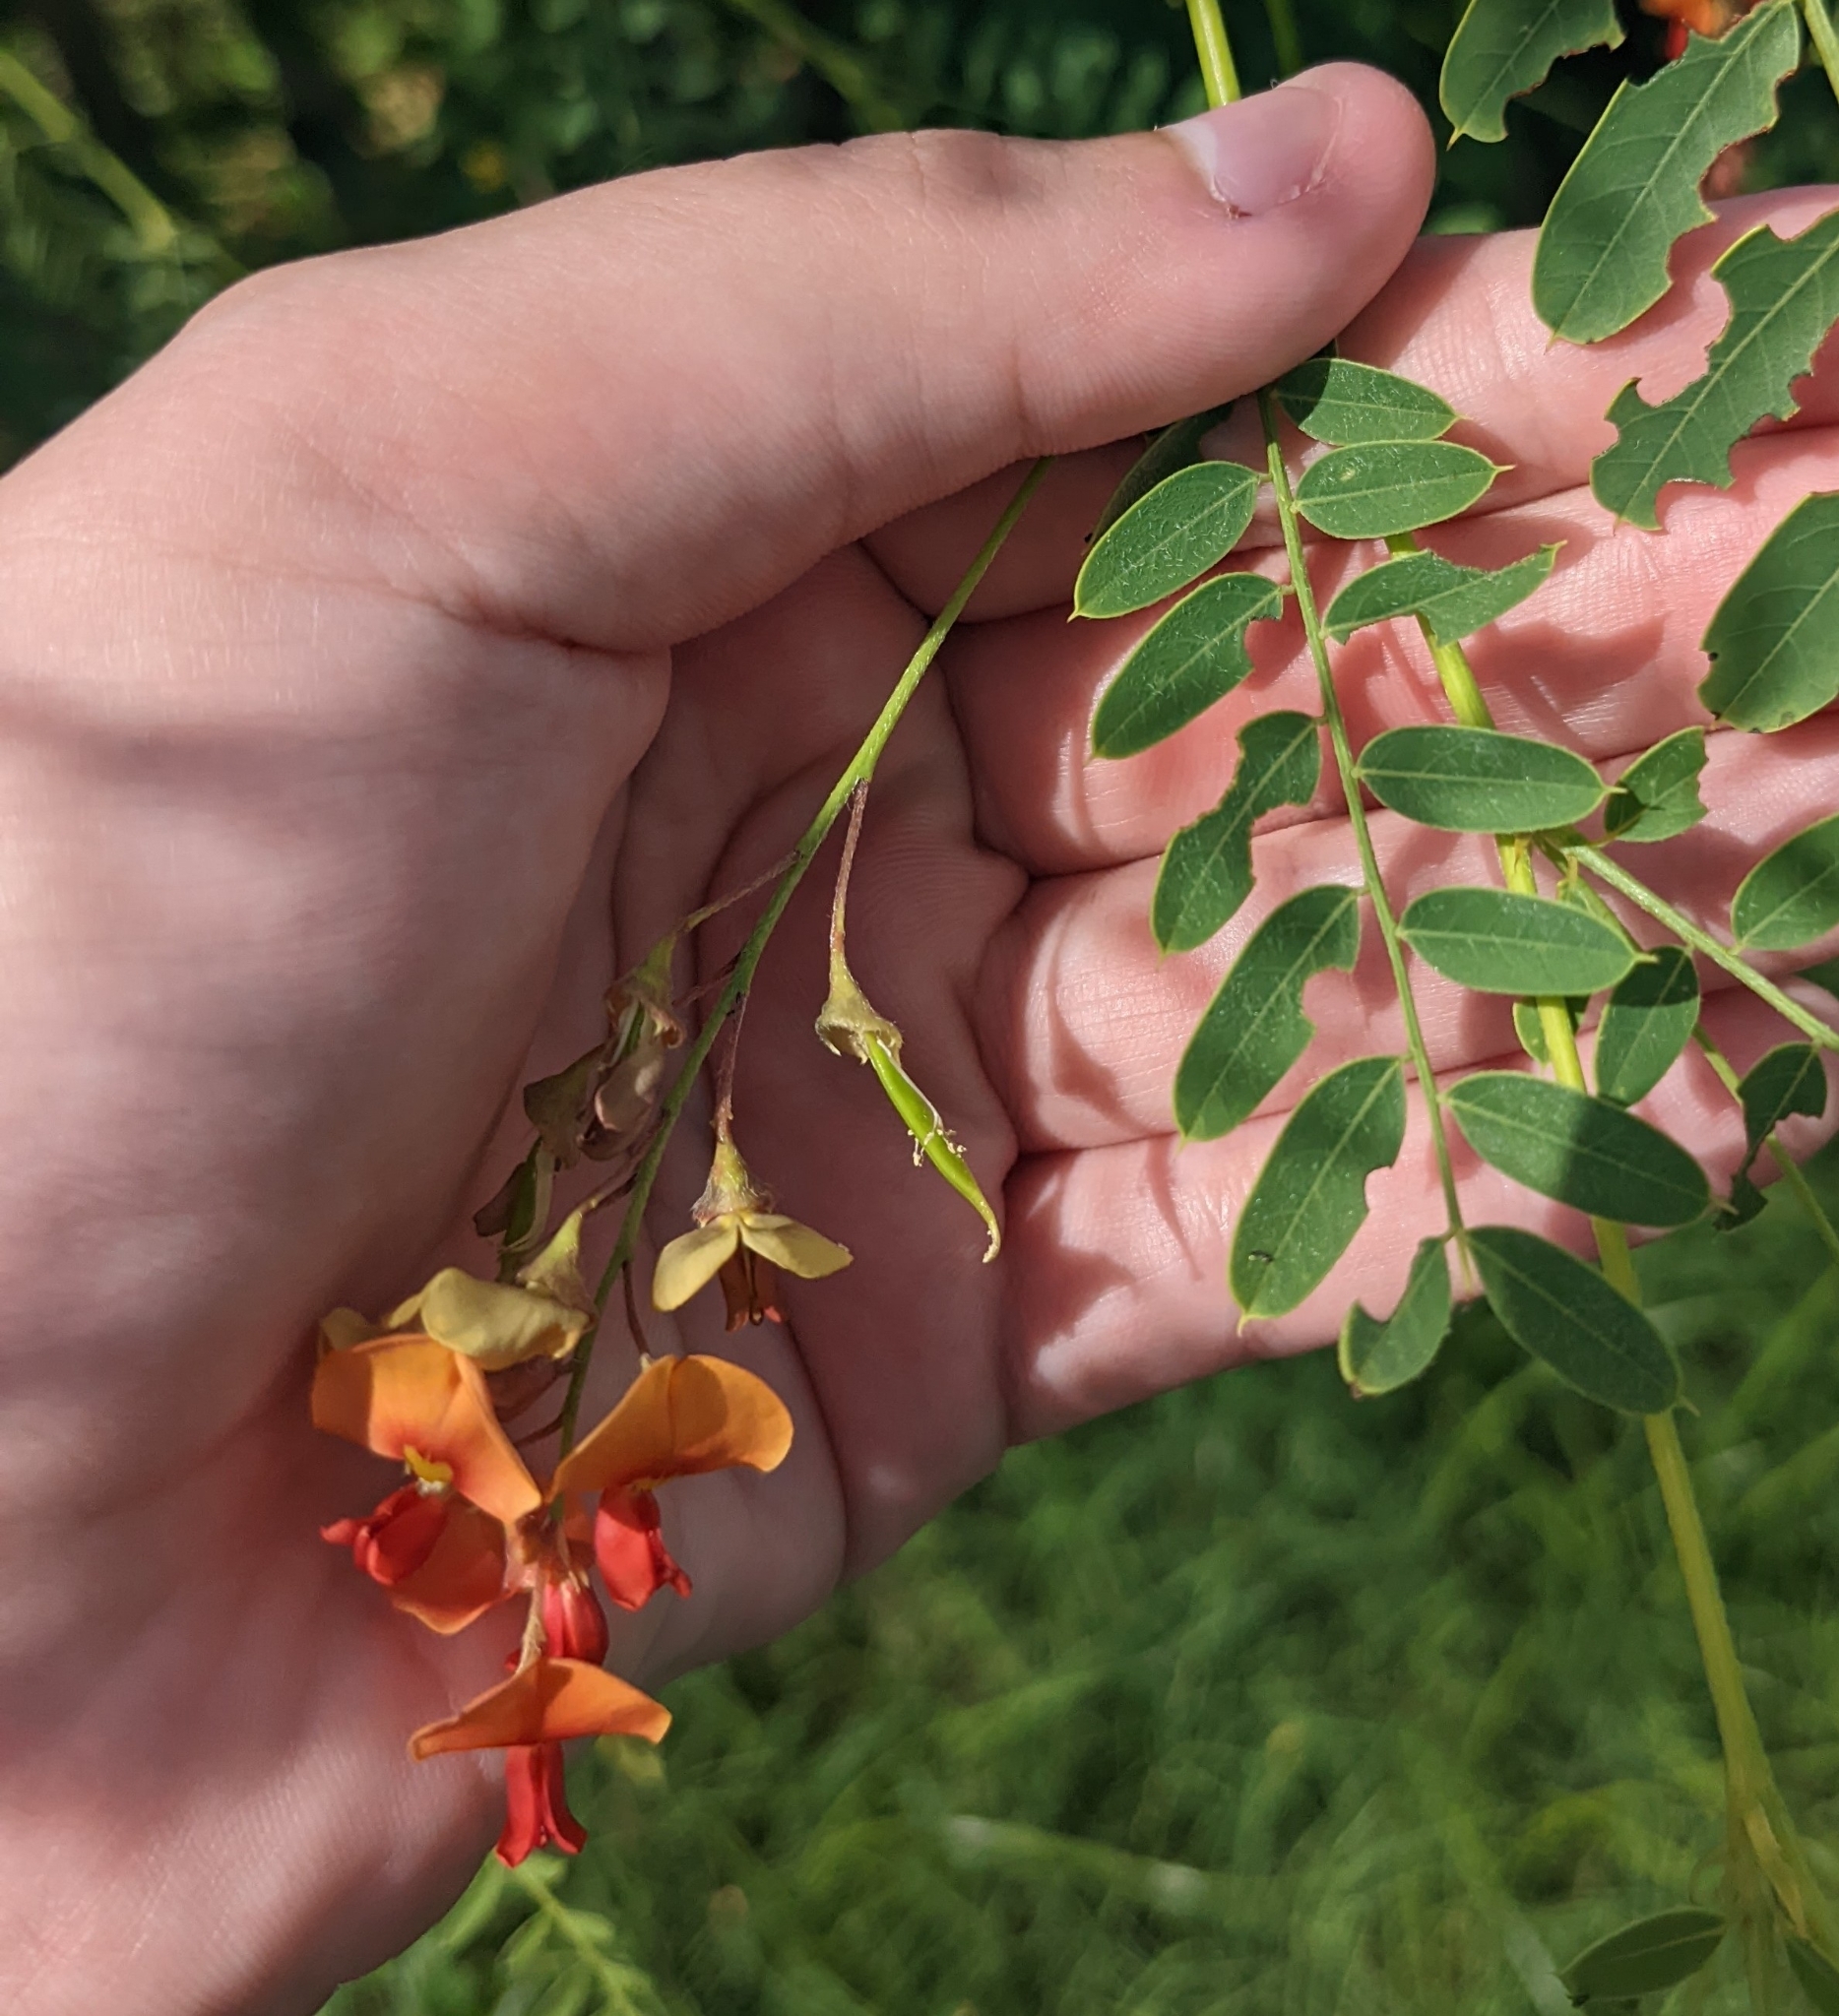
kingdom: Plantae
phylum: Tracheophyta
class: Magnoliopsida
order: Fabales
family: Fabaceae
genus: Sesbania
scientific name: Sesbania vesicaria
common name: Bagpod
